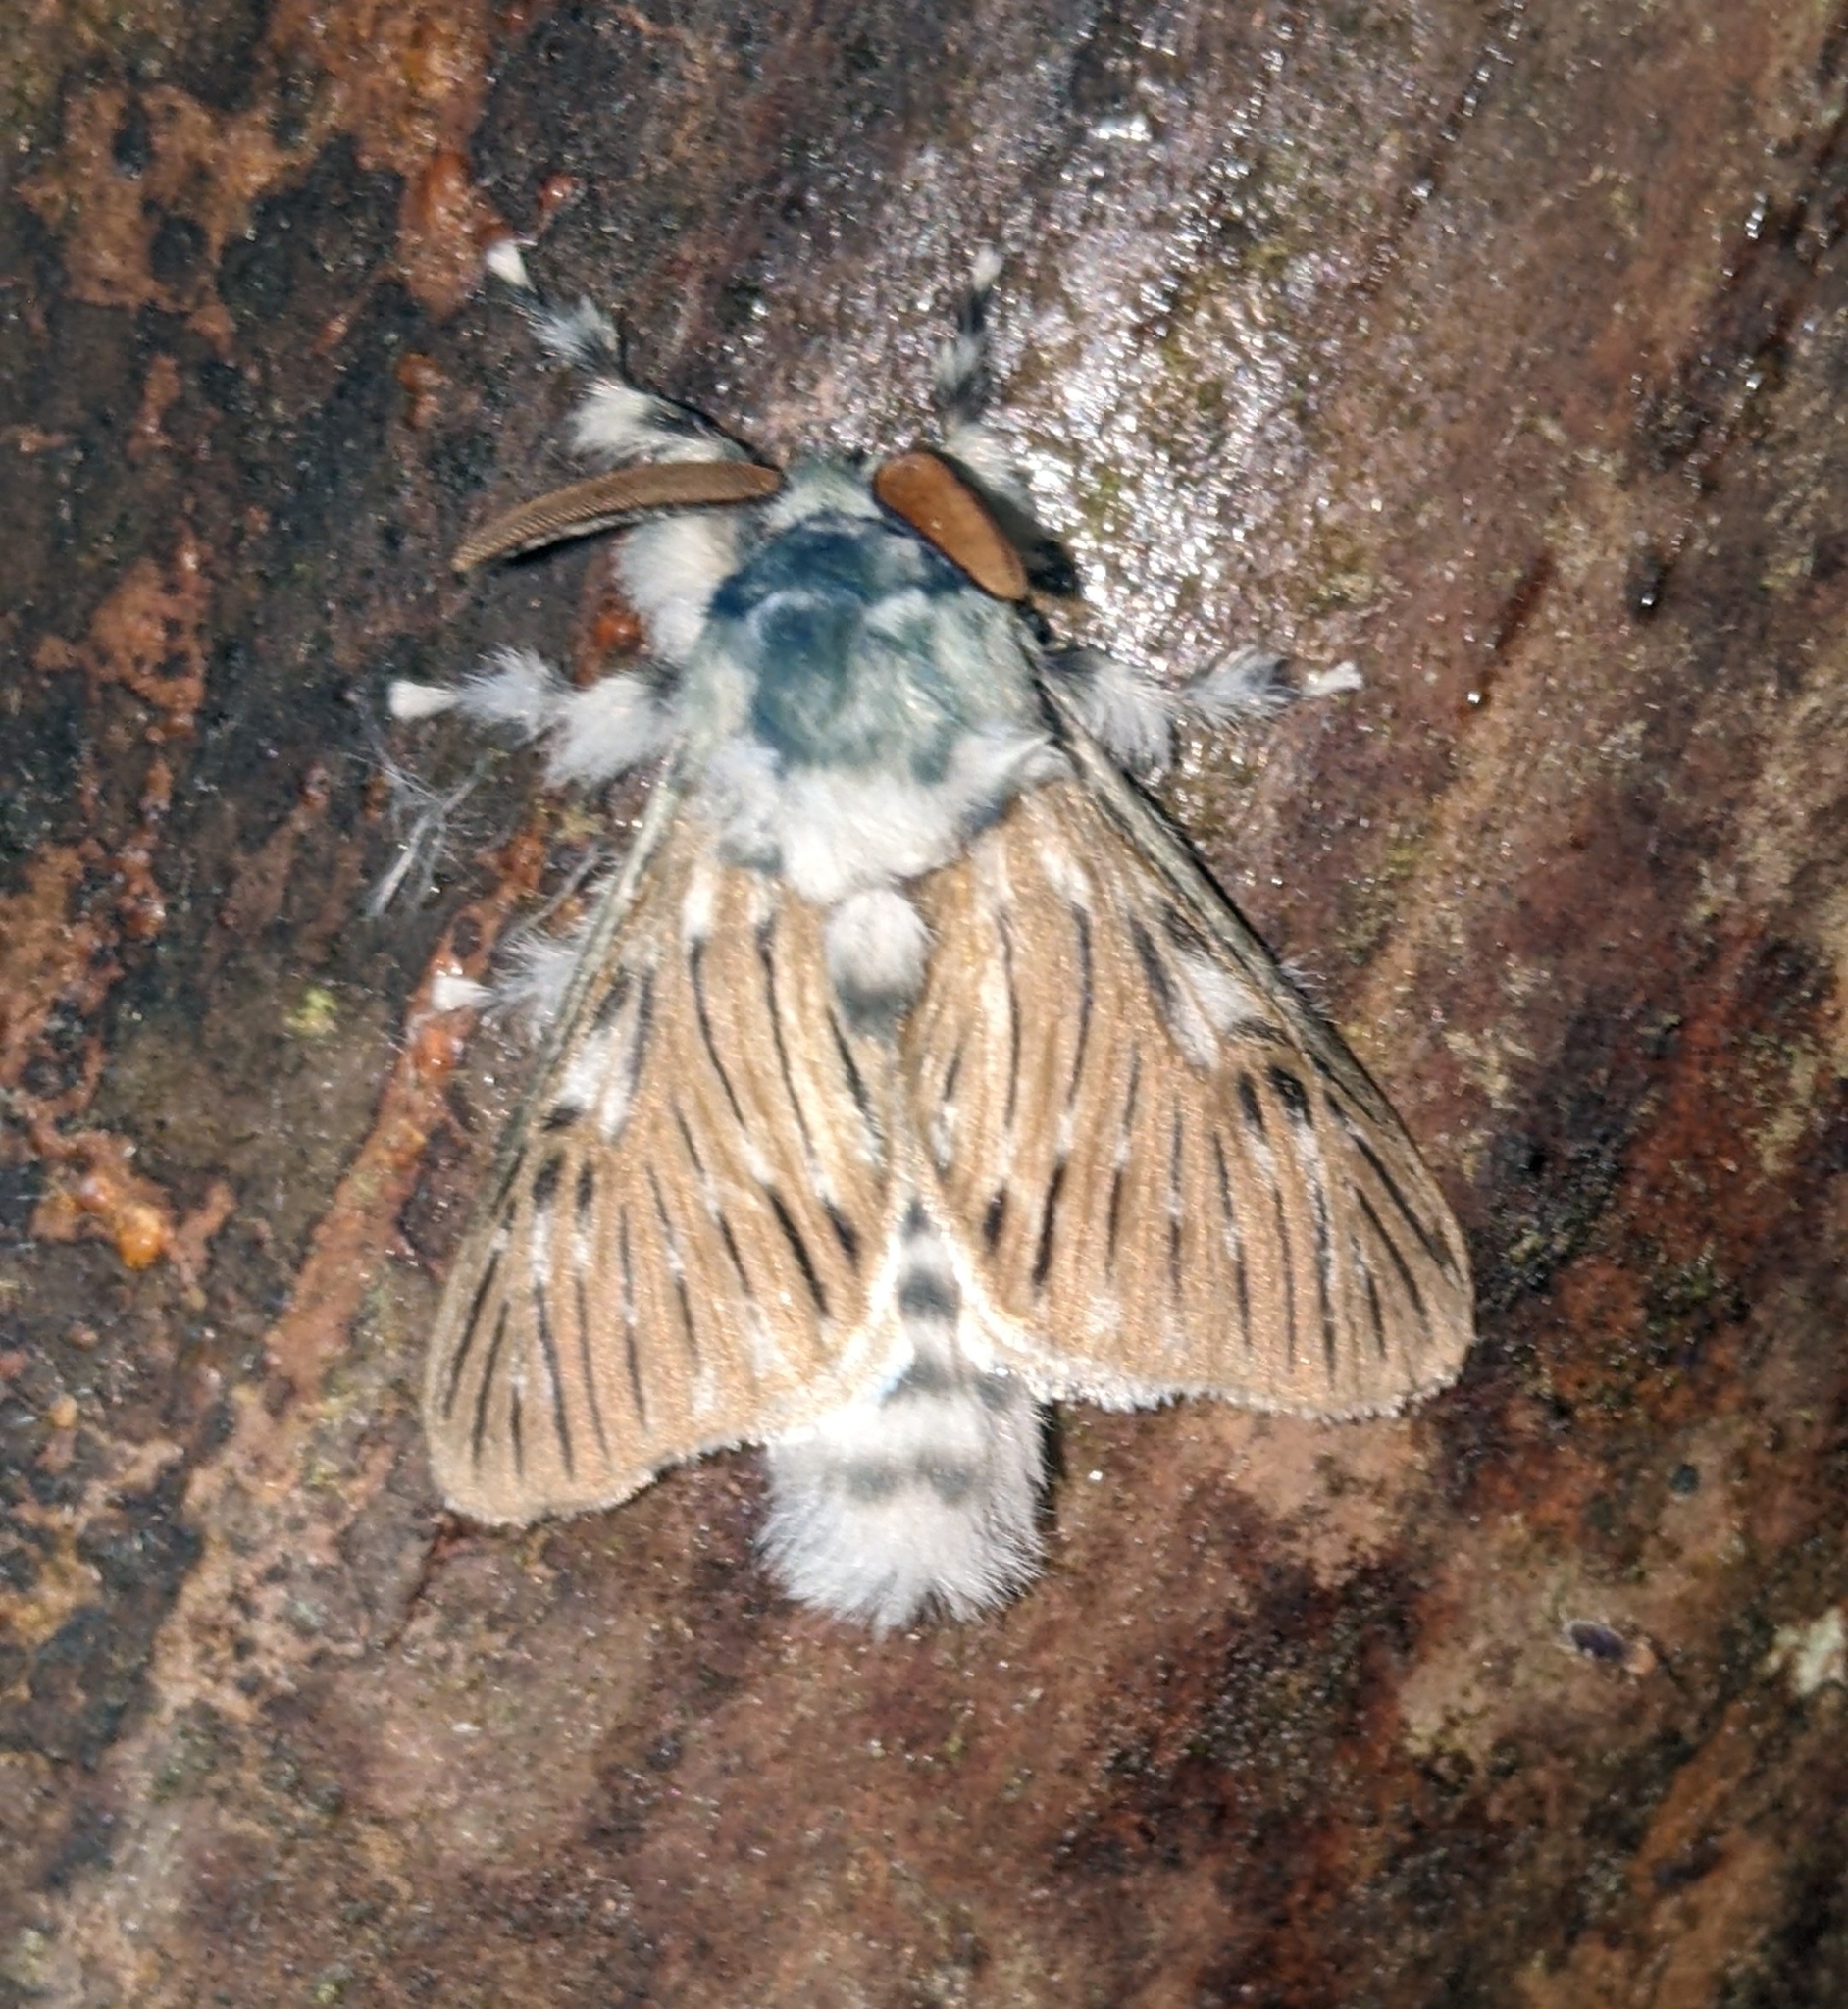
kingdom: Animalia
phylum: Arthropoda
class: Insecta
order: Lepidoptera
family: Megalopygidae
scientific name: Megalopygidae
